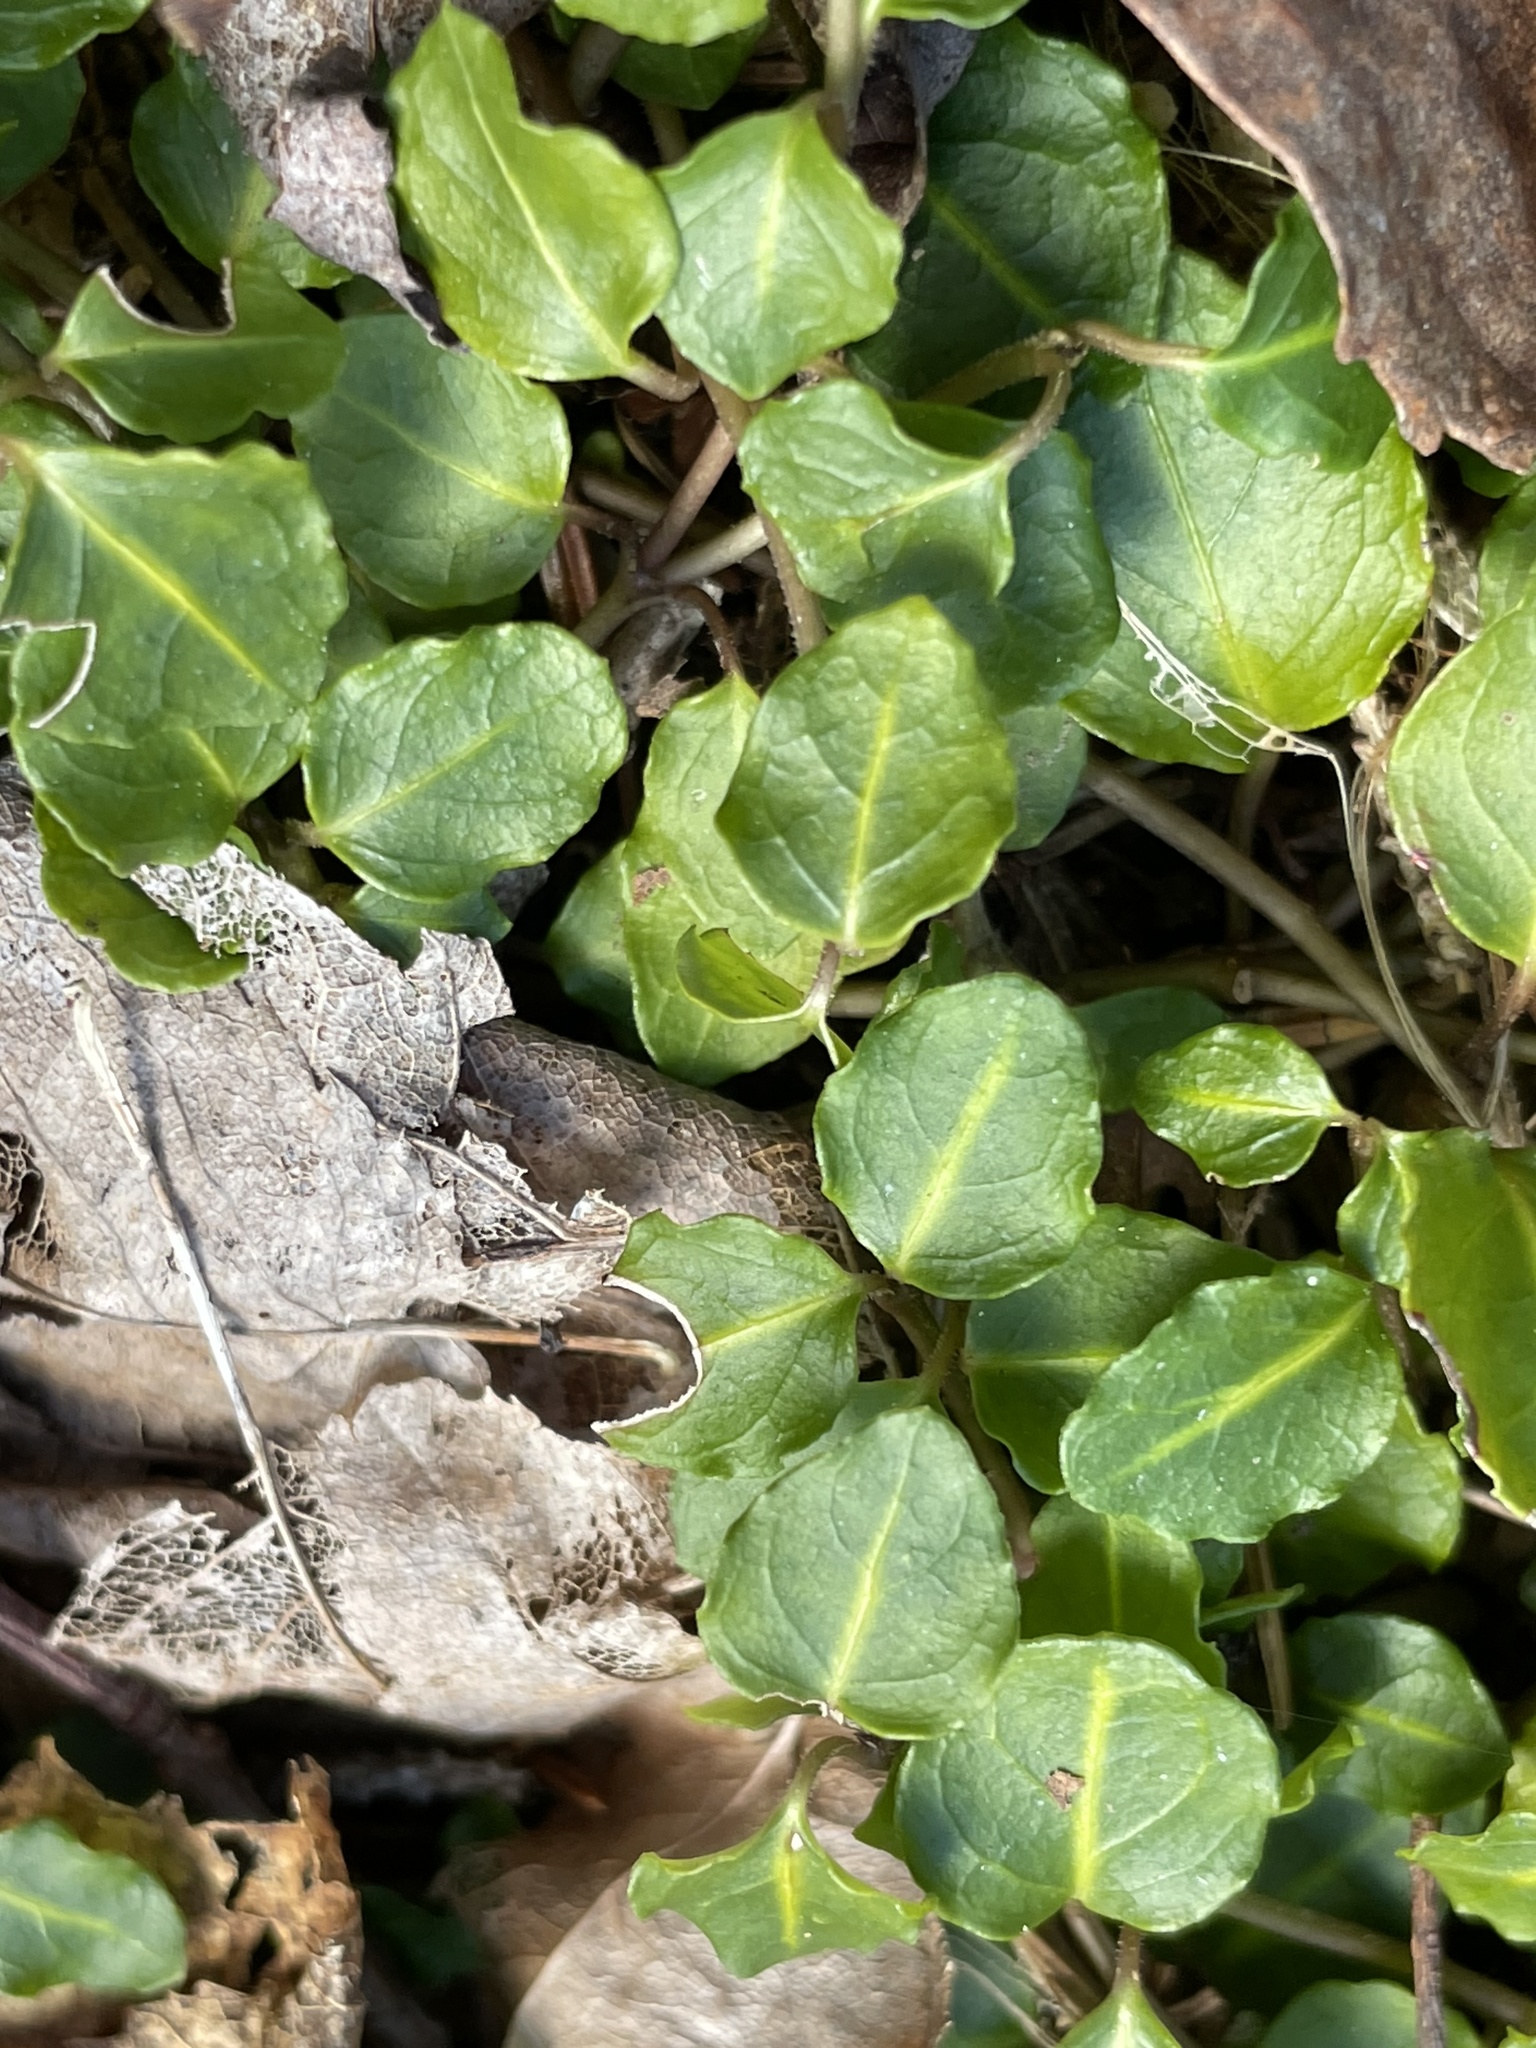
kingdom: Plantae
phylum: Tracheophyta
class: Magnoliopsida
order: Gentianales
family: Rubiaceae
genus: Mitchella
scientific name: Mitchella repens
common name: Partridge-berry
